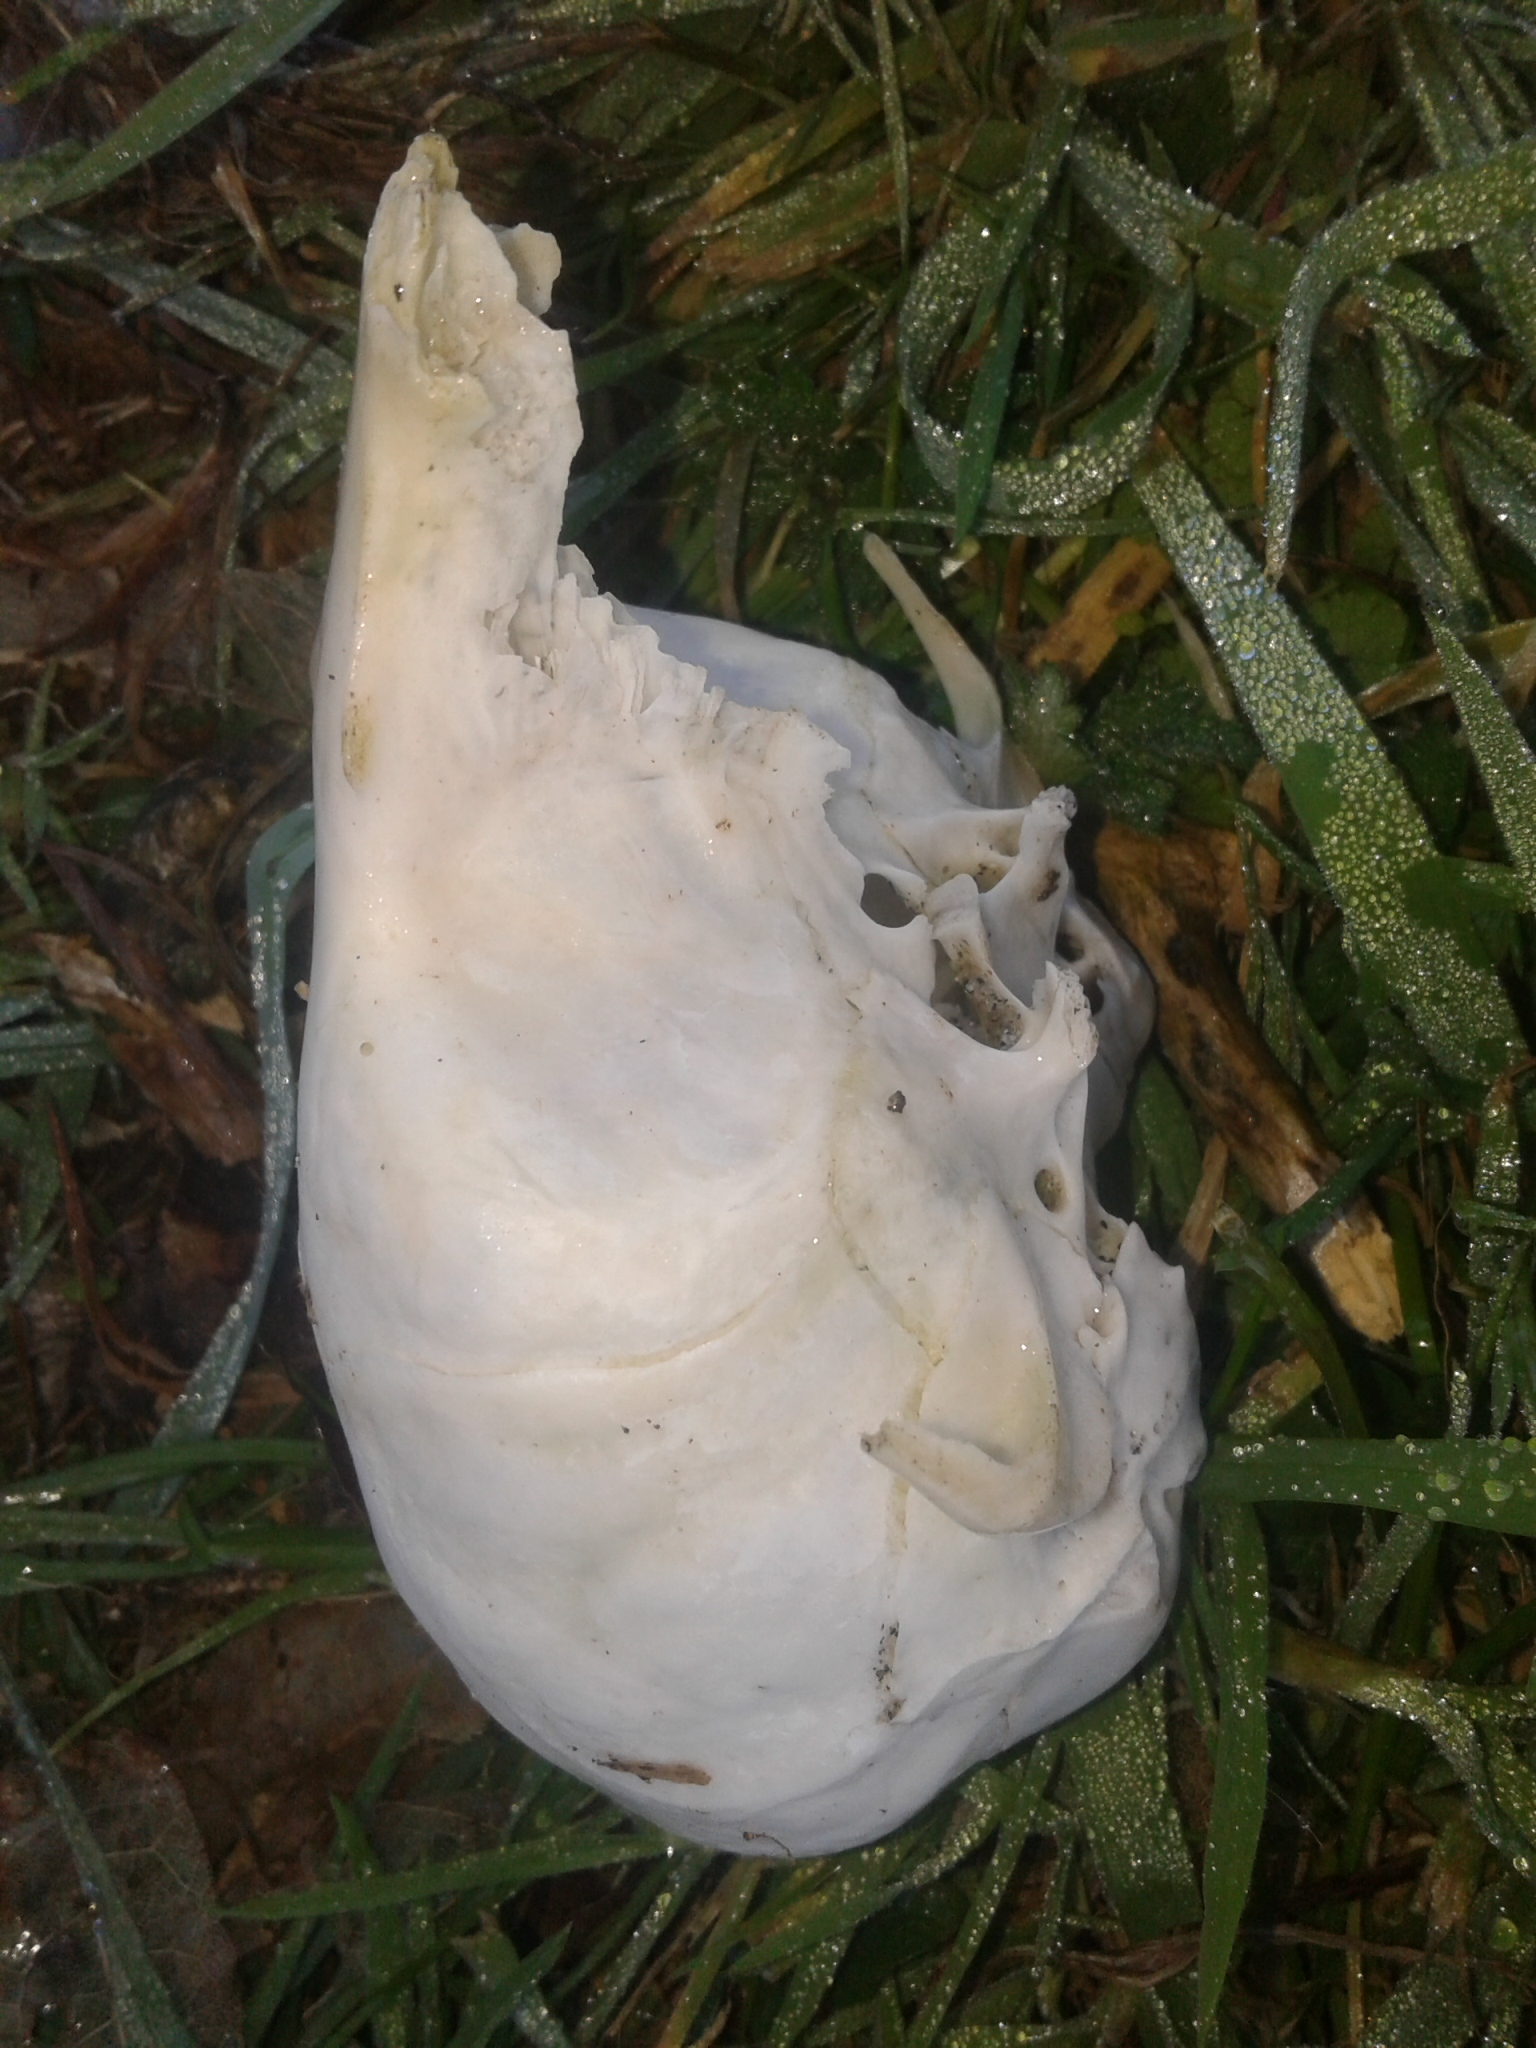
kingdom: Animalia
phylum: Chordata
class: Mammalia
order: Carnivora
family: Otariidae
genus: Arctocephalus
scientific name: Arctocephalus forsteri
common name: New zealand fur seal
